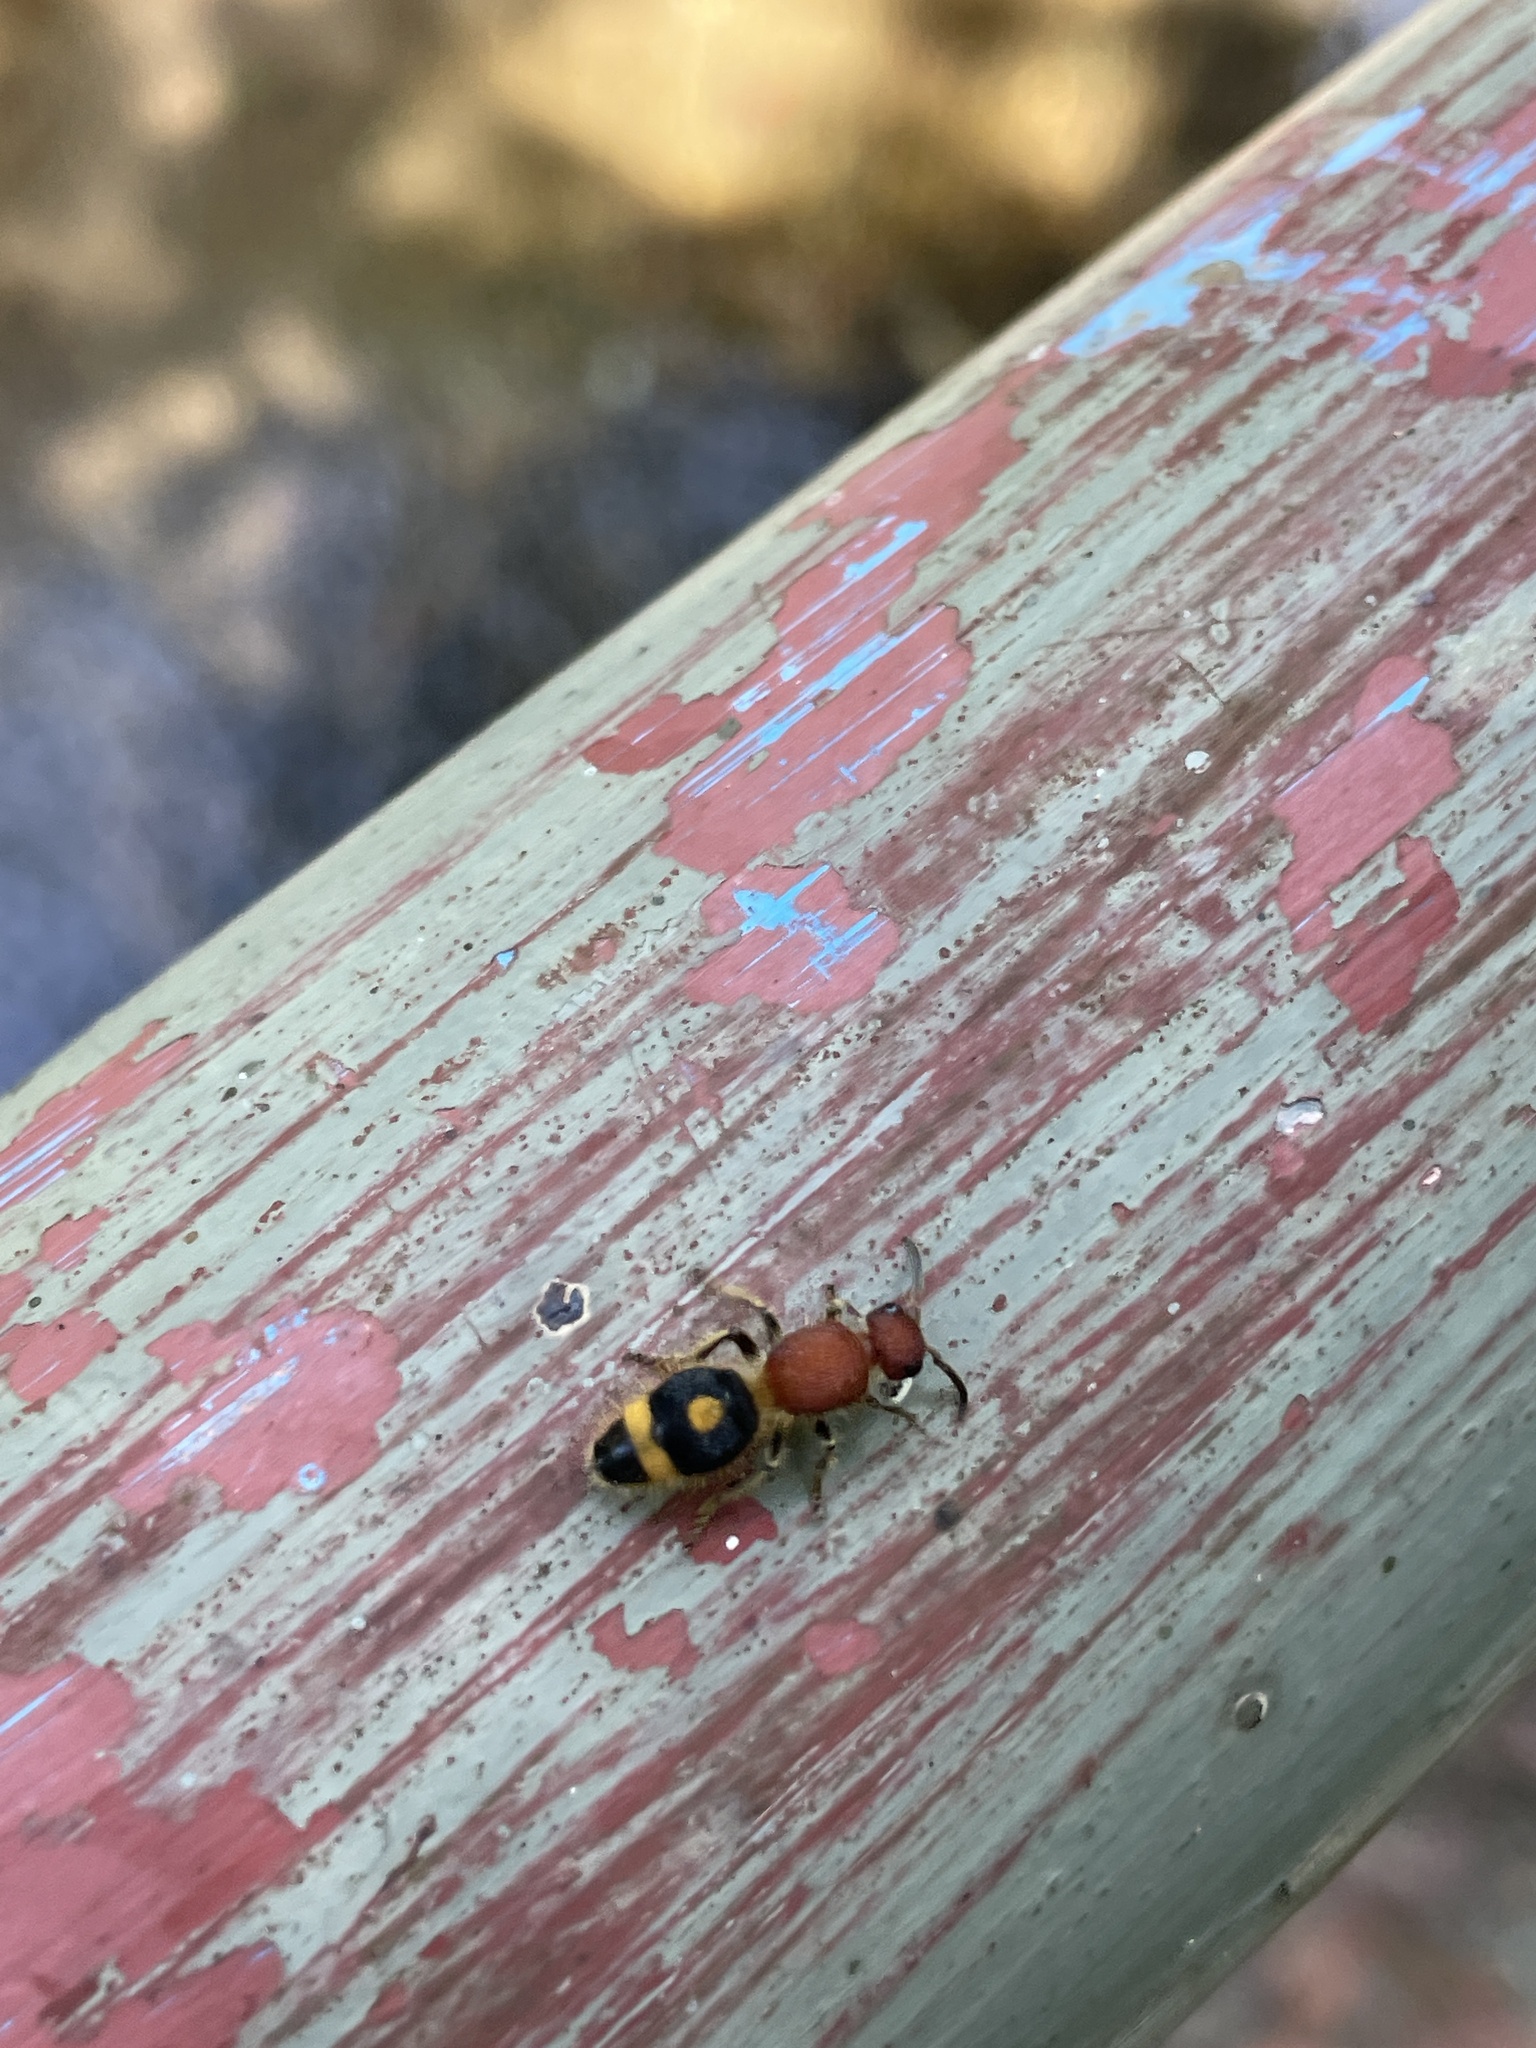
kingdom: Animalia
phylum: Arthropoda
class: Insecta
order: Hymenoptera
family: Mutillidae
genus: Odontomutilla
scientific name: Odontomutilla uranioides
